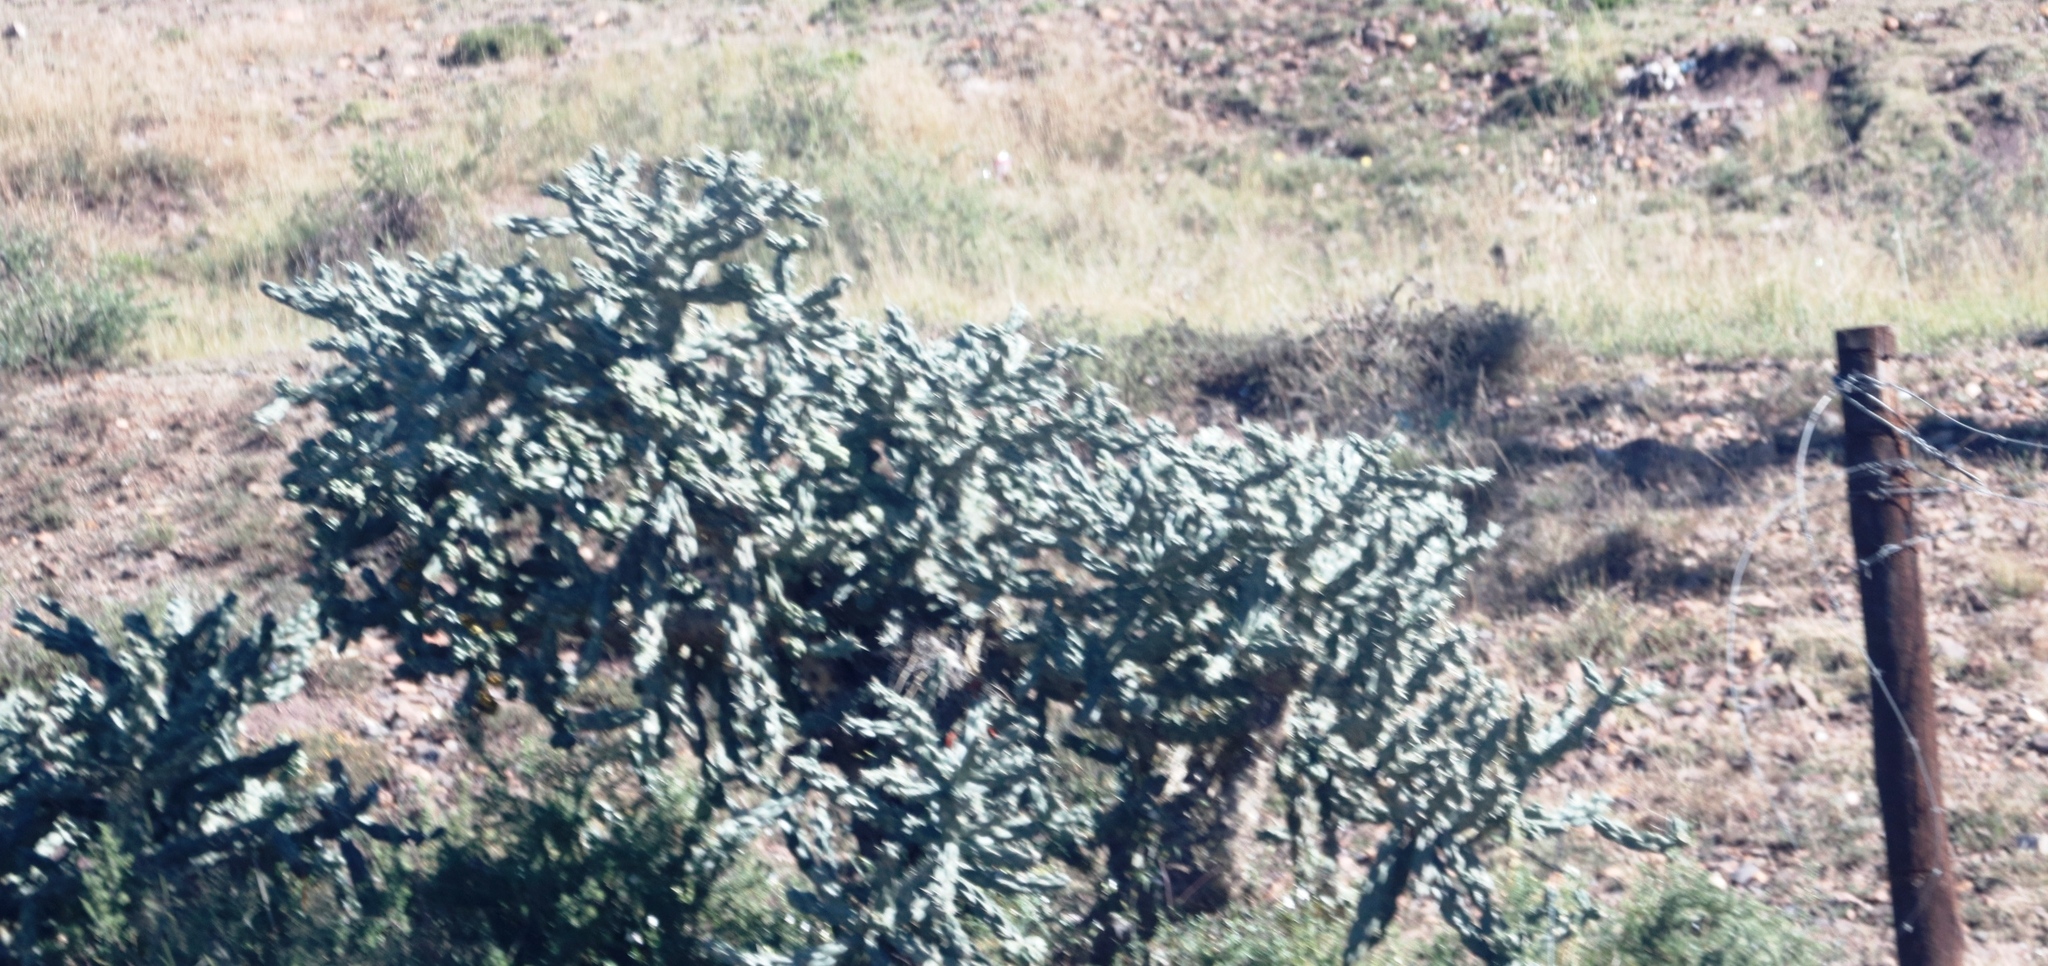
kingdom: Plantae
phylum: Tracheophyta
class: Magnoliopsida
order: Caryophyllales
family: Cactaceae
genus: Cylindropuntia
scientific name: Cylindropuntia imbricata
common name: Candelabrum cactus
